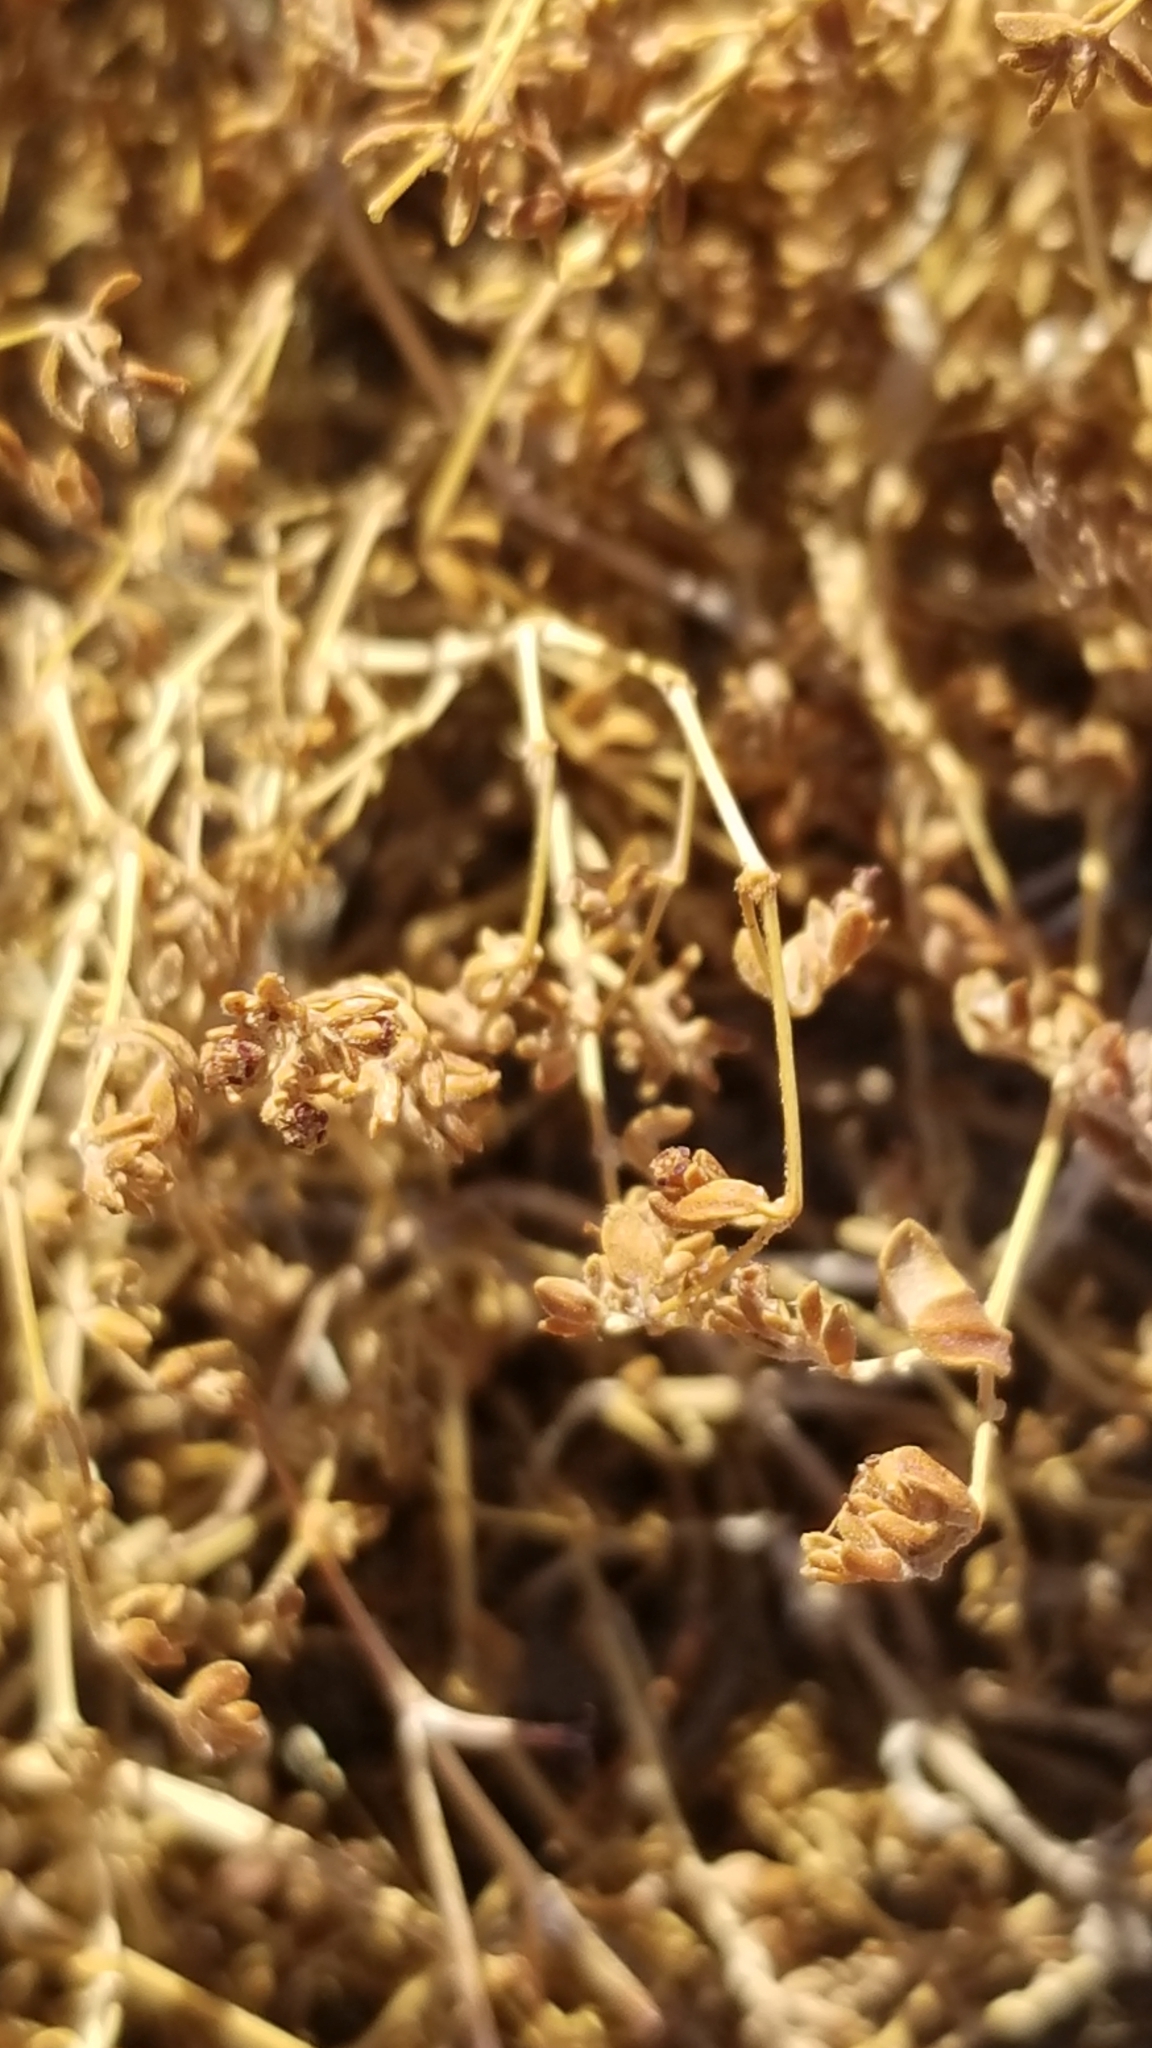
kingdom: Plantae
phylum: Tracheophyta
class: Magnoliopsida
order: Malpighiales
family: Euphorbiaceae
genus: Euphorbia
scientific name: Euphorbia polycarpa
